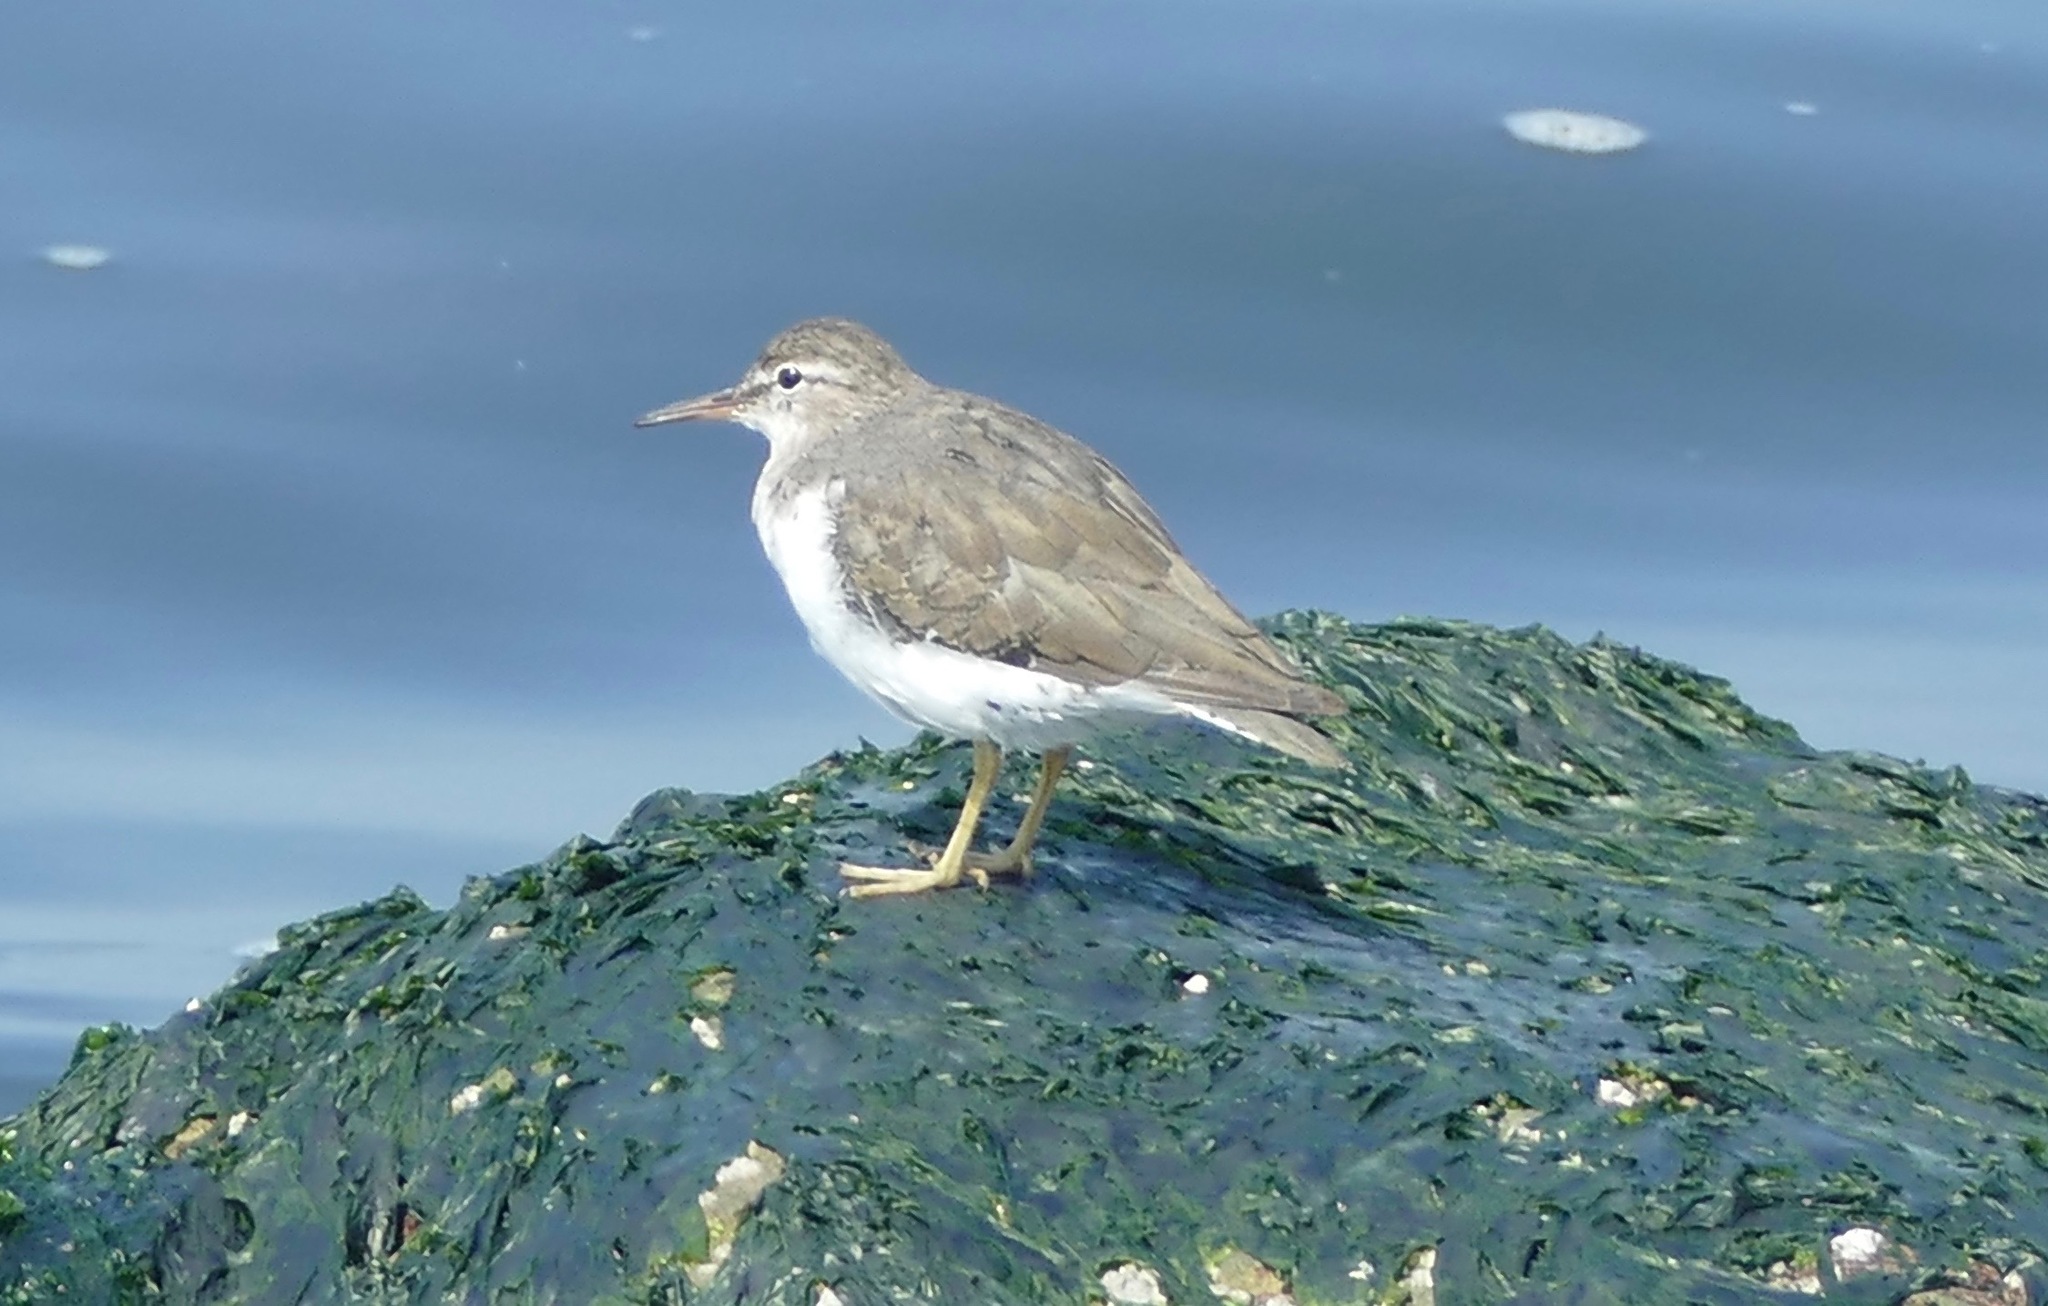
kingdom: Animalia
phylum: Chordata
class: Aves
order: Charadriiformes
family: Scolopacidae
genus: Actitis
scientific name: Actitis macularius
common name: Spotted sandpiper
